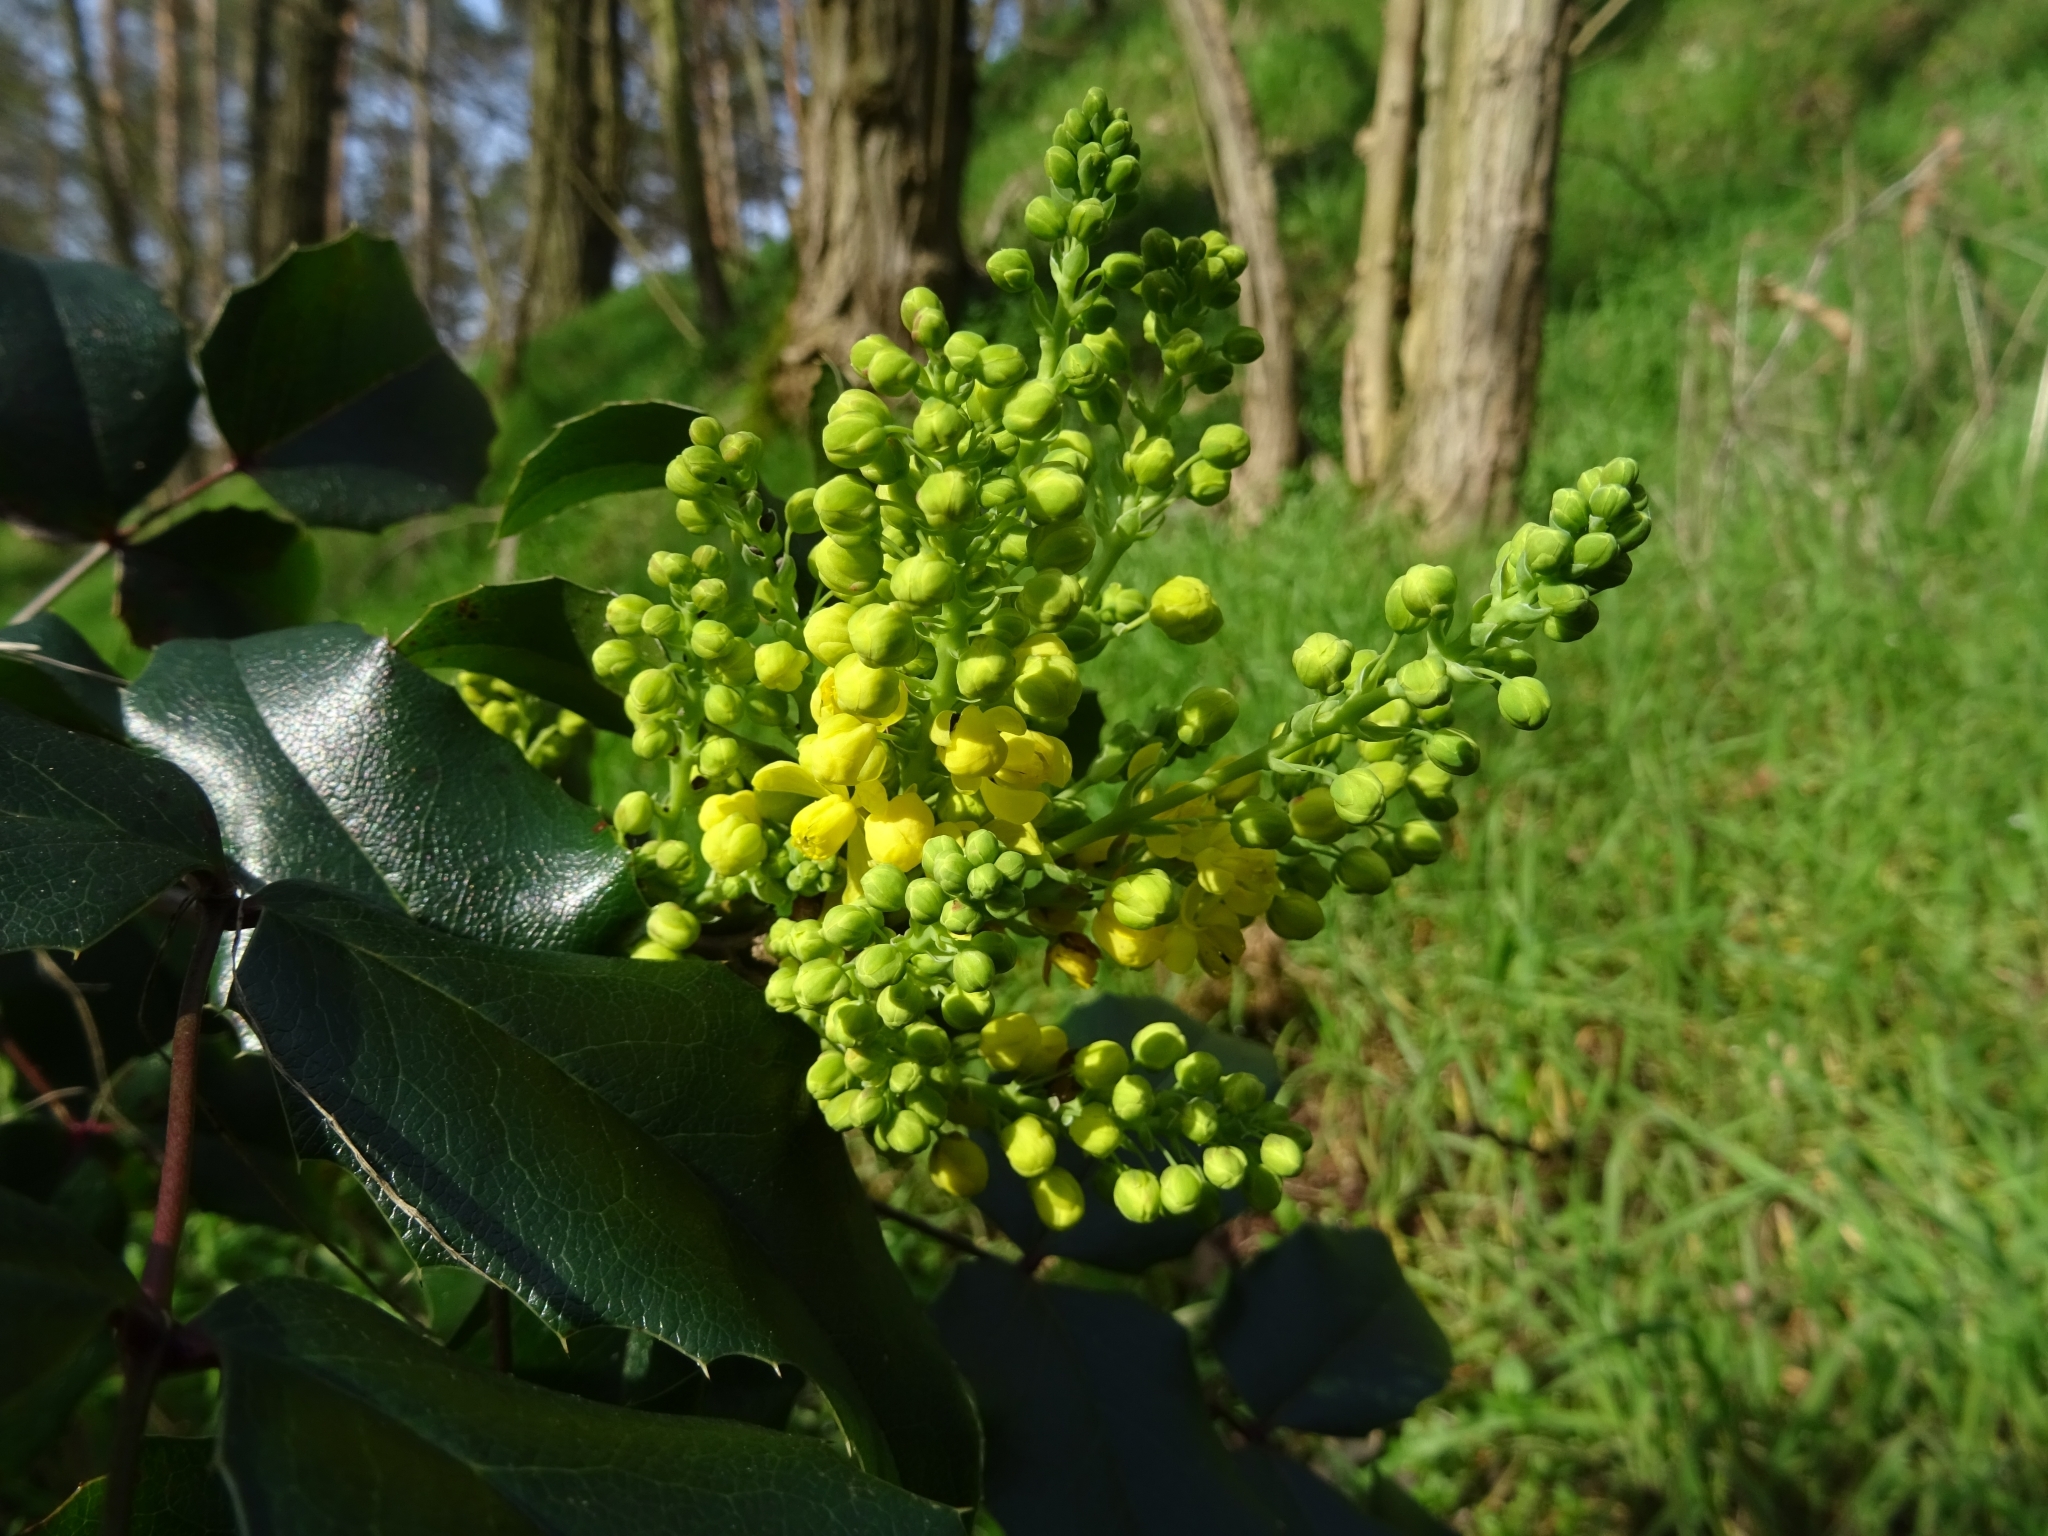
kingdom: Plantae
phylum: Tracheophyta
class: Magnoliopsida
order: Ranunculales
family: Berberidaceae
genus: Mahonia
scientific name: Mahonia aquifolium
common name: Oregon-grape
